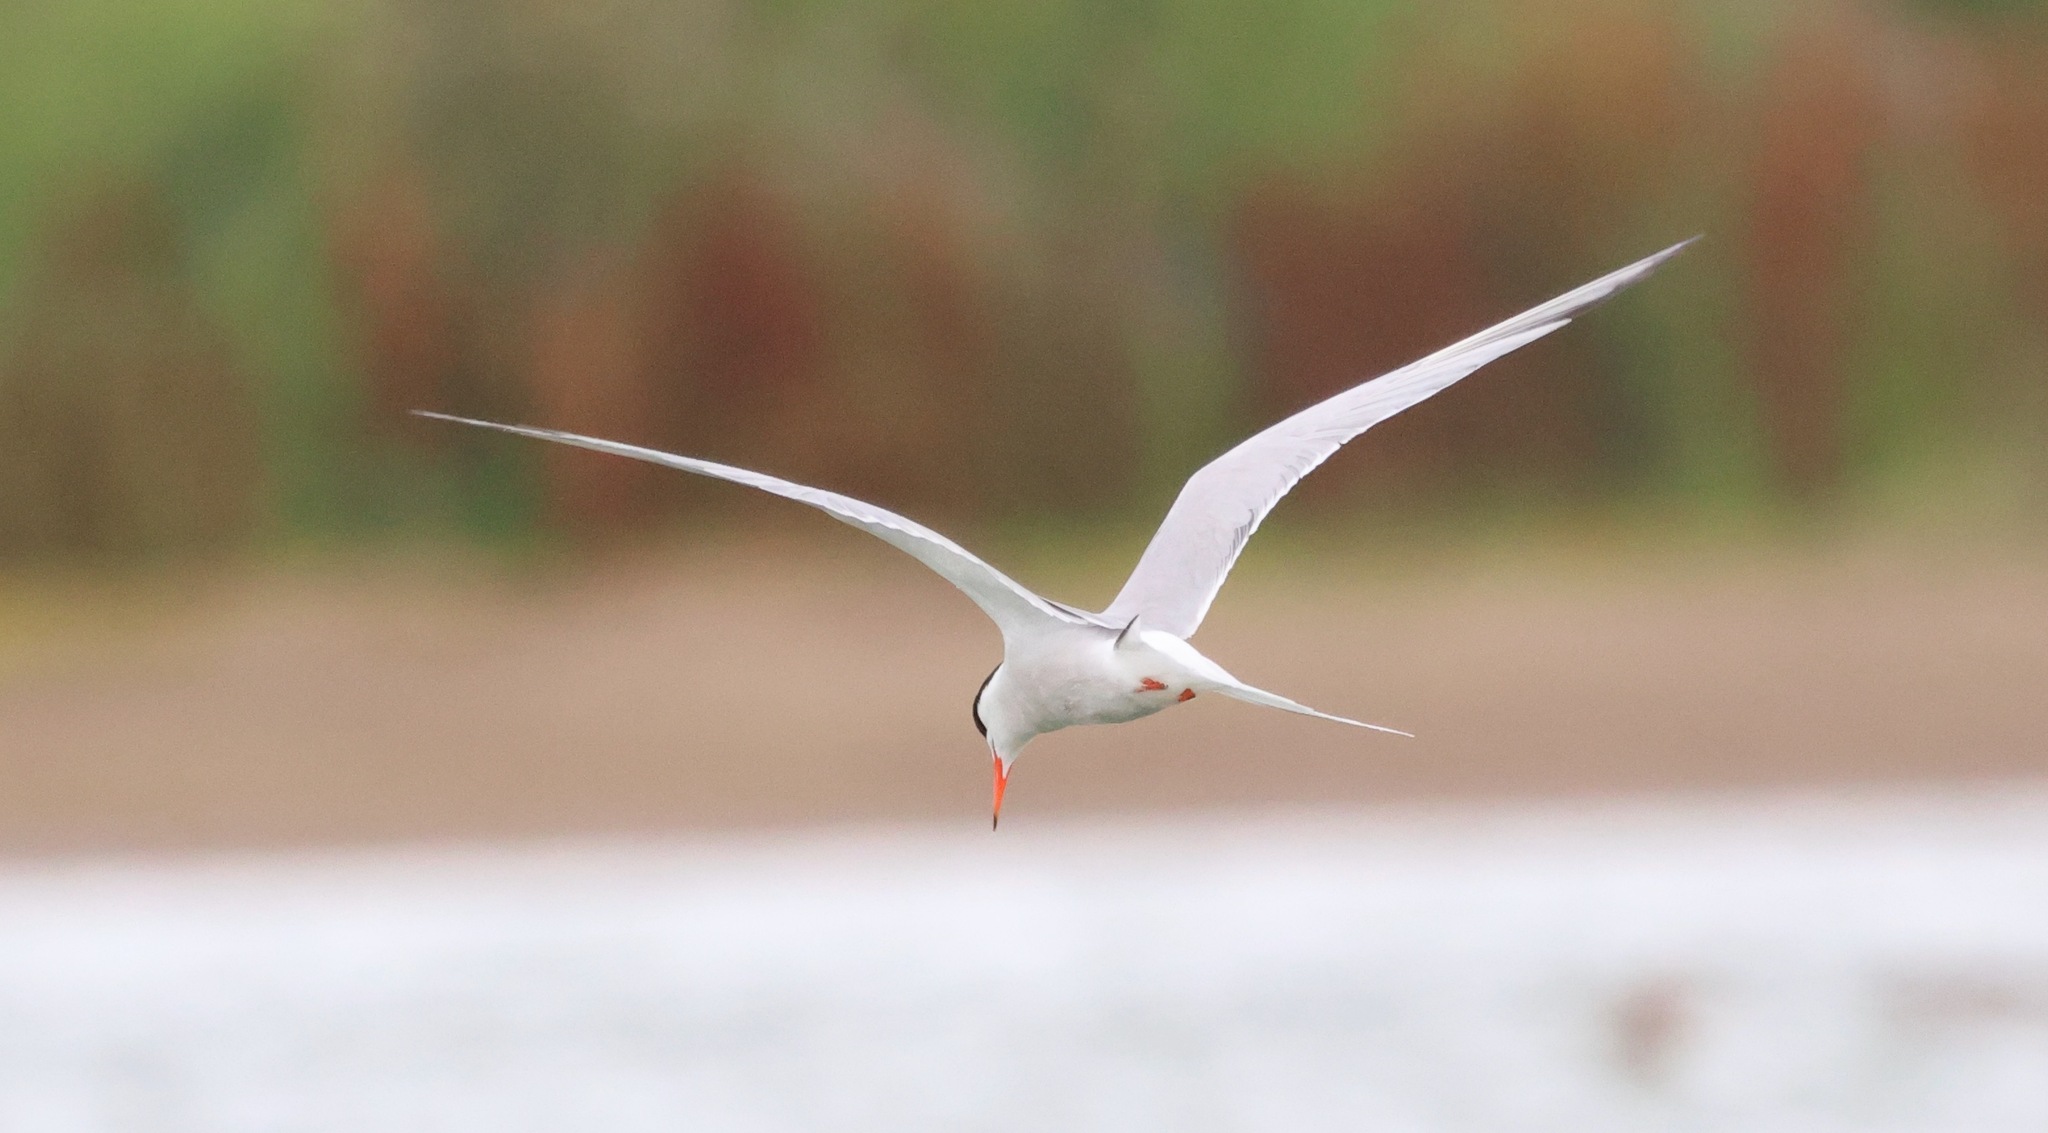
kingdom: Animalia
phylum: Chordata
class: Aves
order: Charadriiformes
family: Laridae
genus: Sterna
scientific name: Sterna hirundo
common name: Common tern
